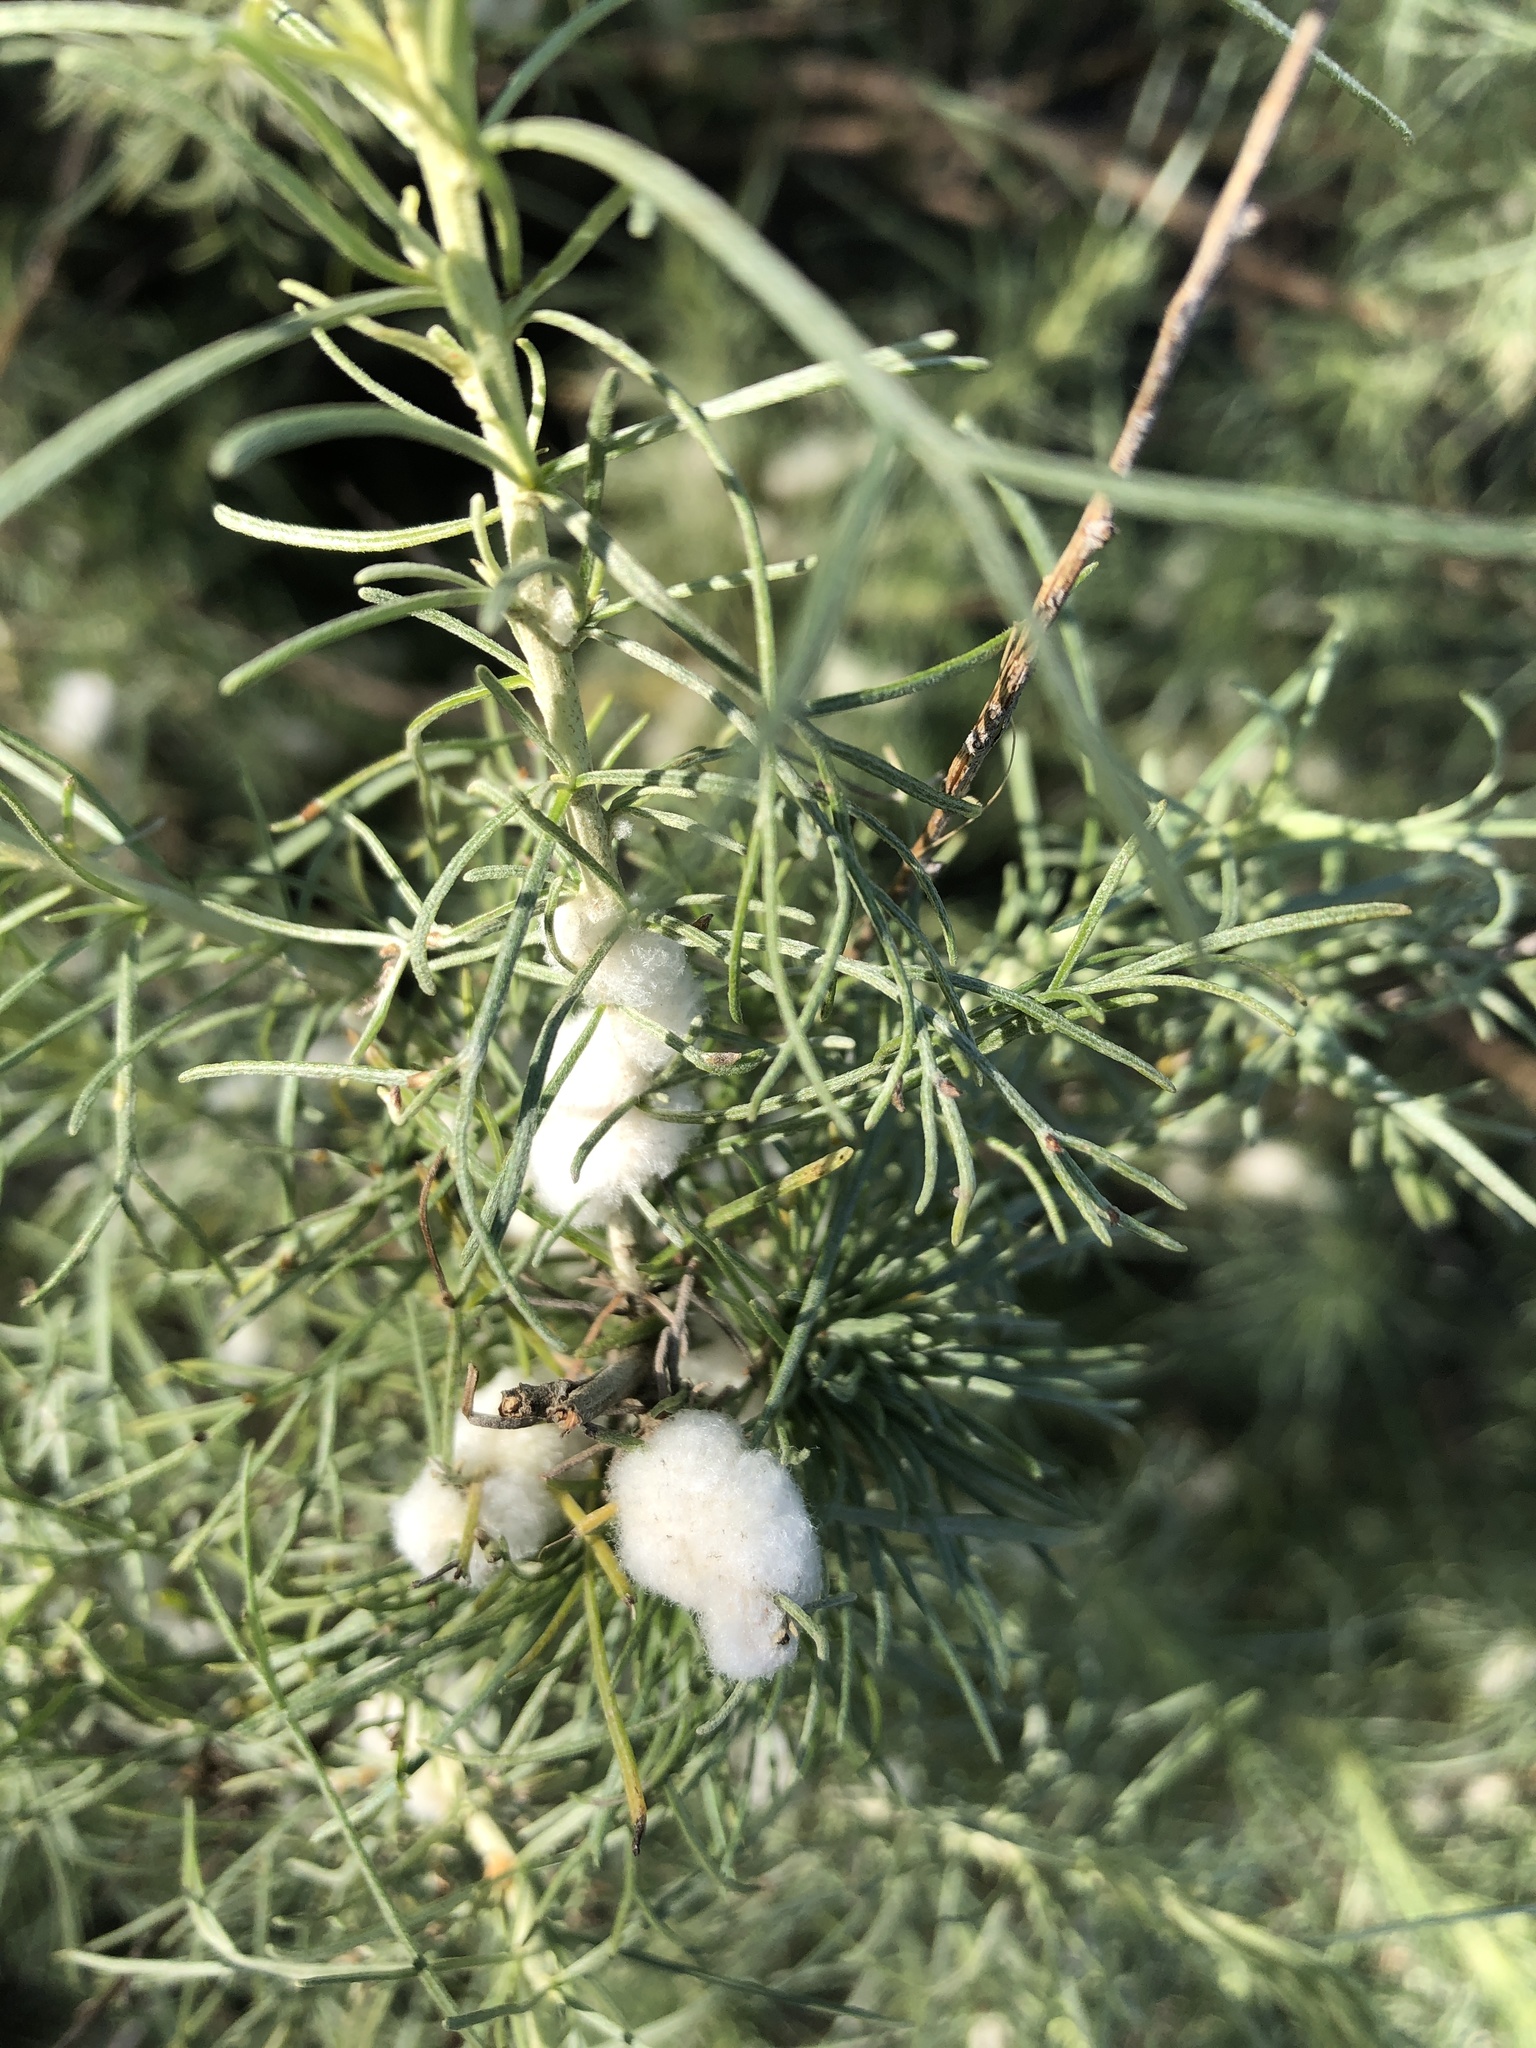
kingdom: Animalia
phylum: Arthropoda
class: Insecta
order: Diptera
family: Cecidomyiidae
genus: Rhopalomyia
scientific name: Rhopalomyia floccosa
